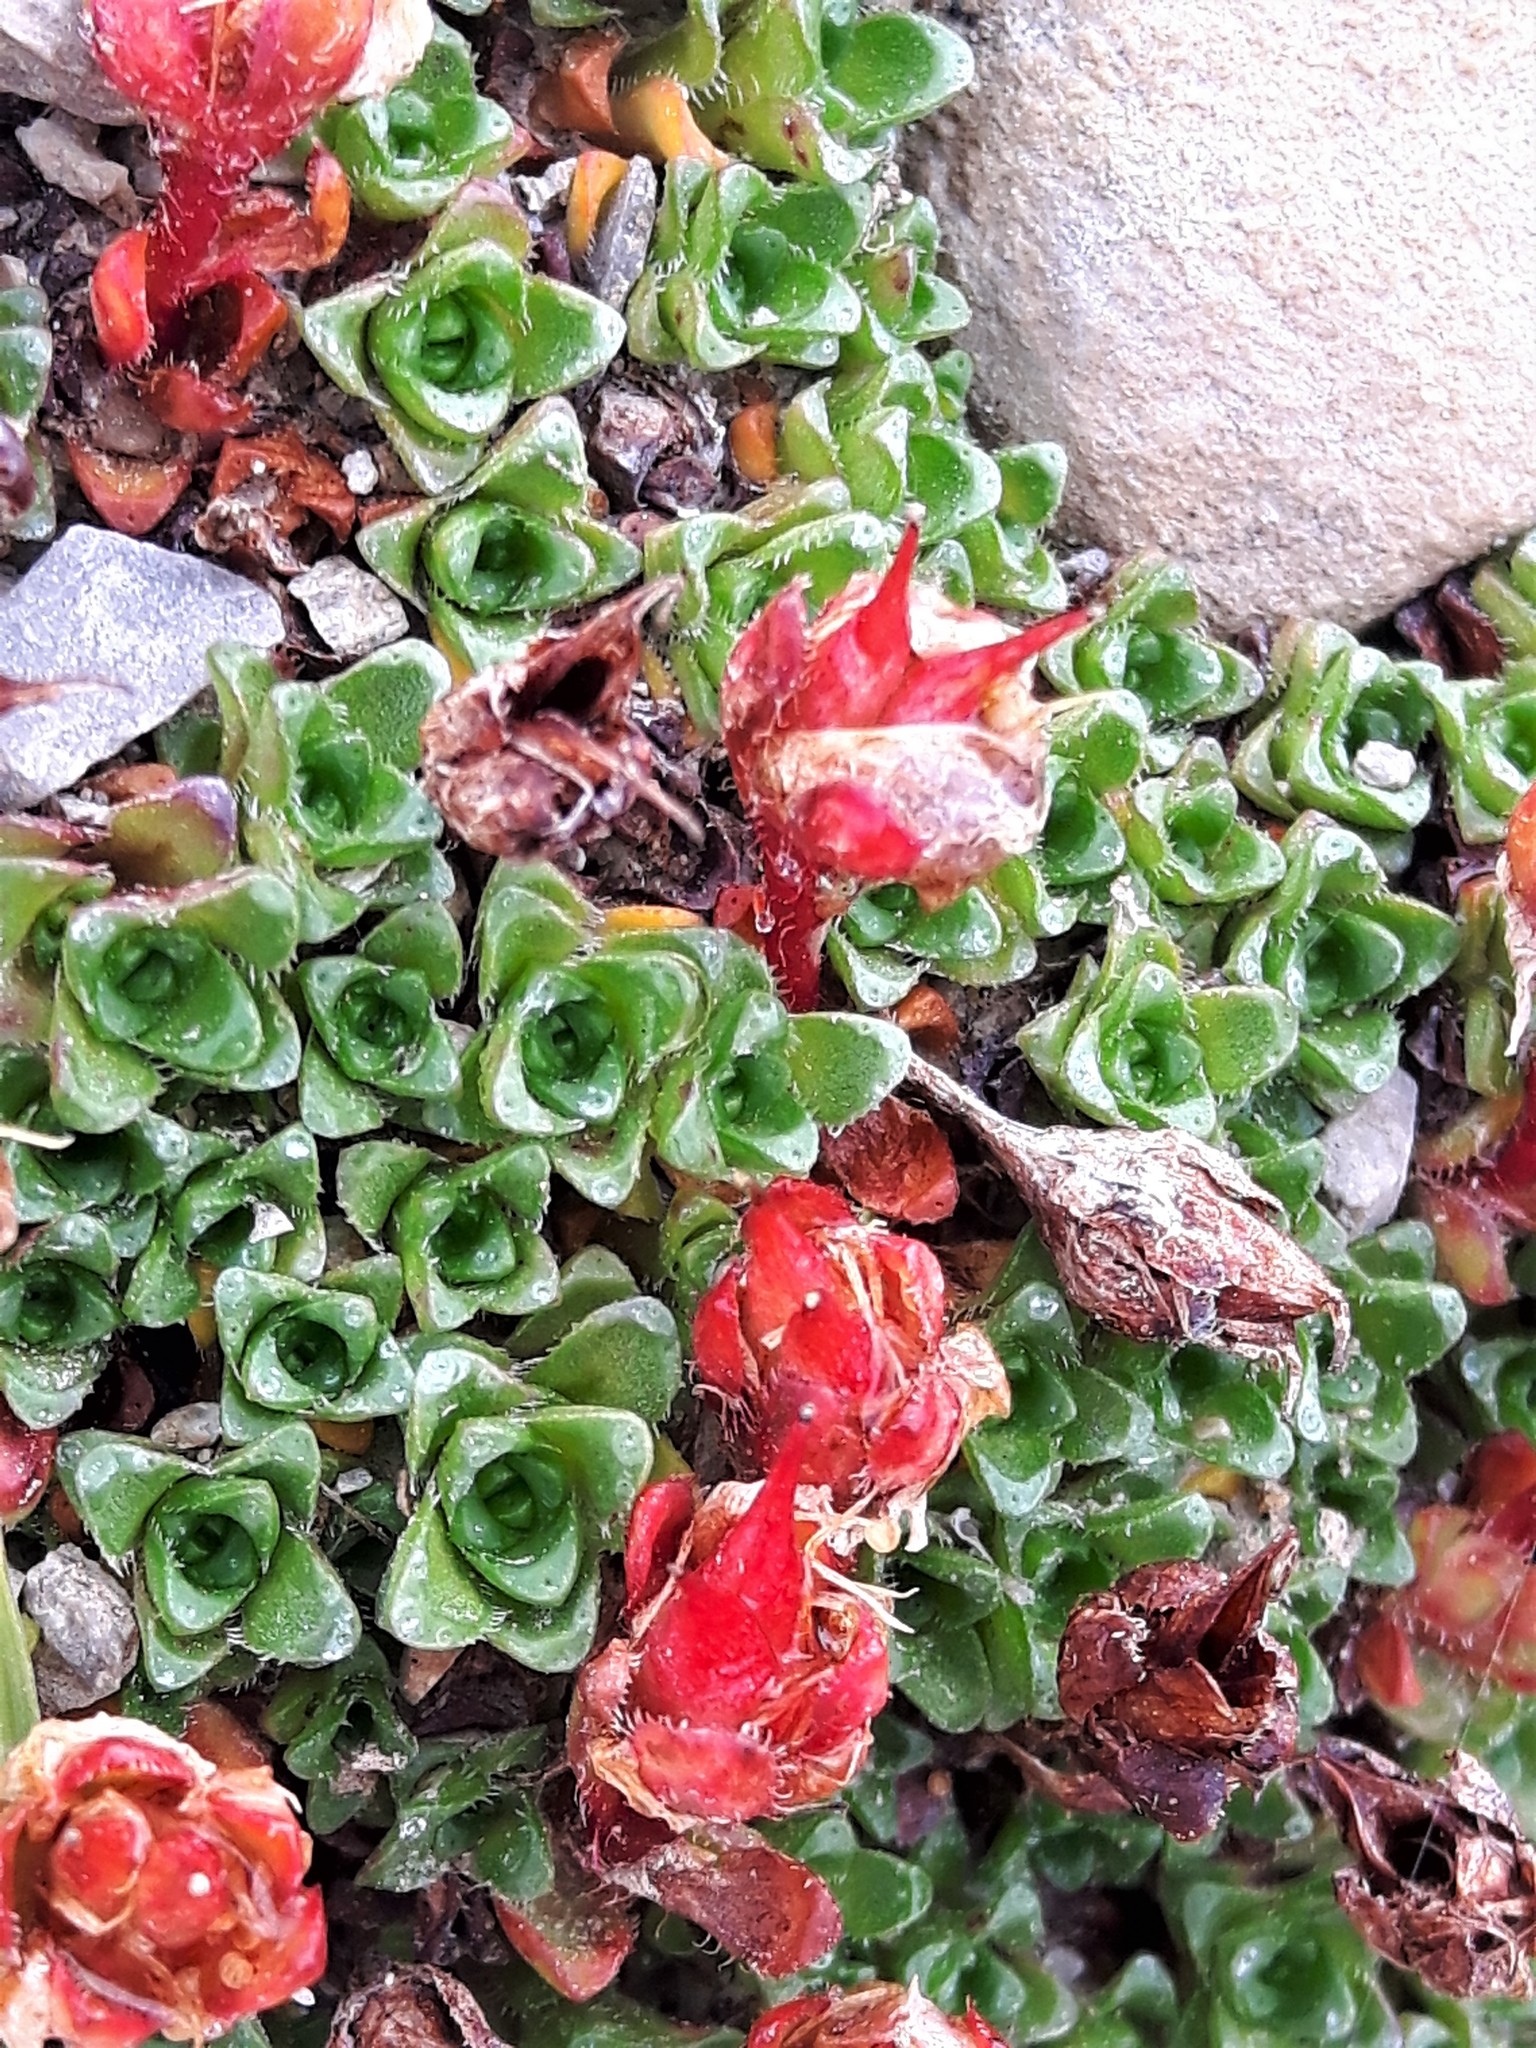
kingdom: Plantae
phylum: Tracheophyta
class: Magnoliopsida
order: Saxifragales
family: Saxifragaceae
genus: Saxifraga
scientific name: Saxifraga oppositifolia
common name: Purple saxifrage
